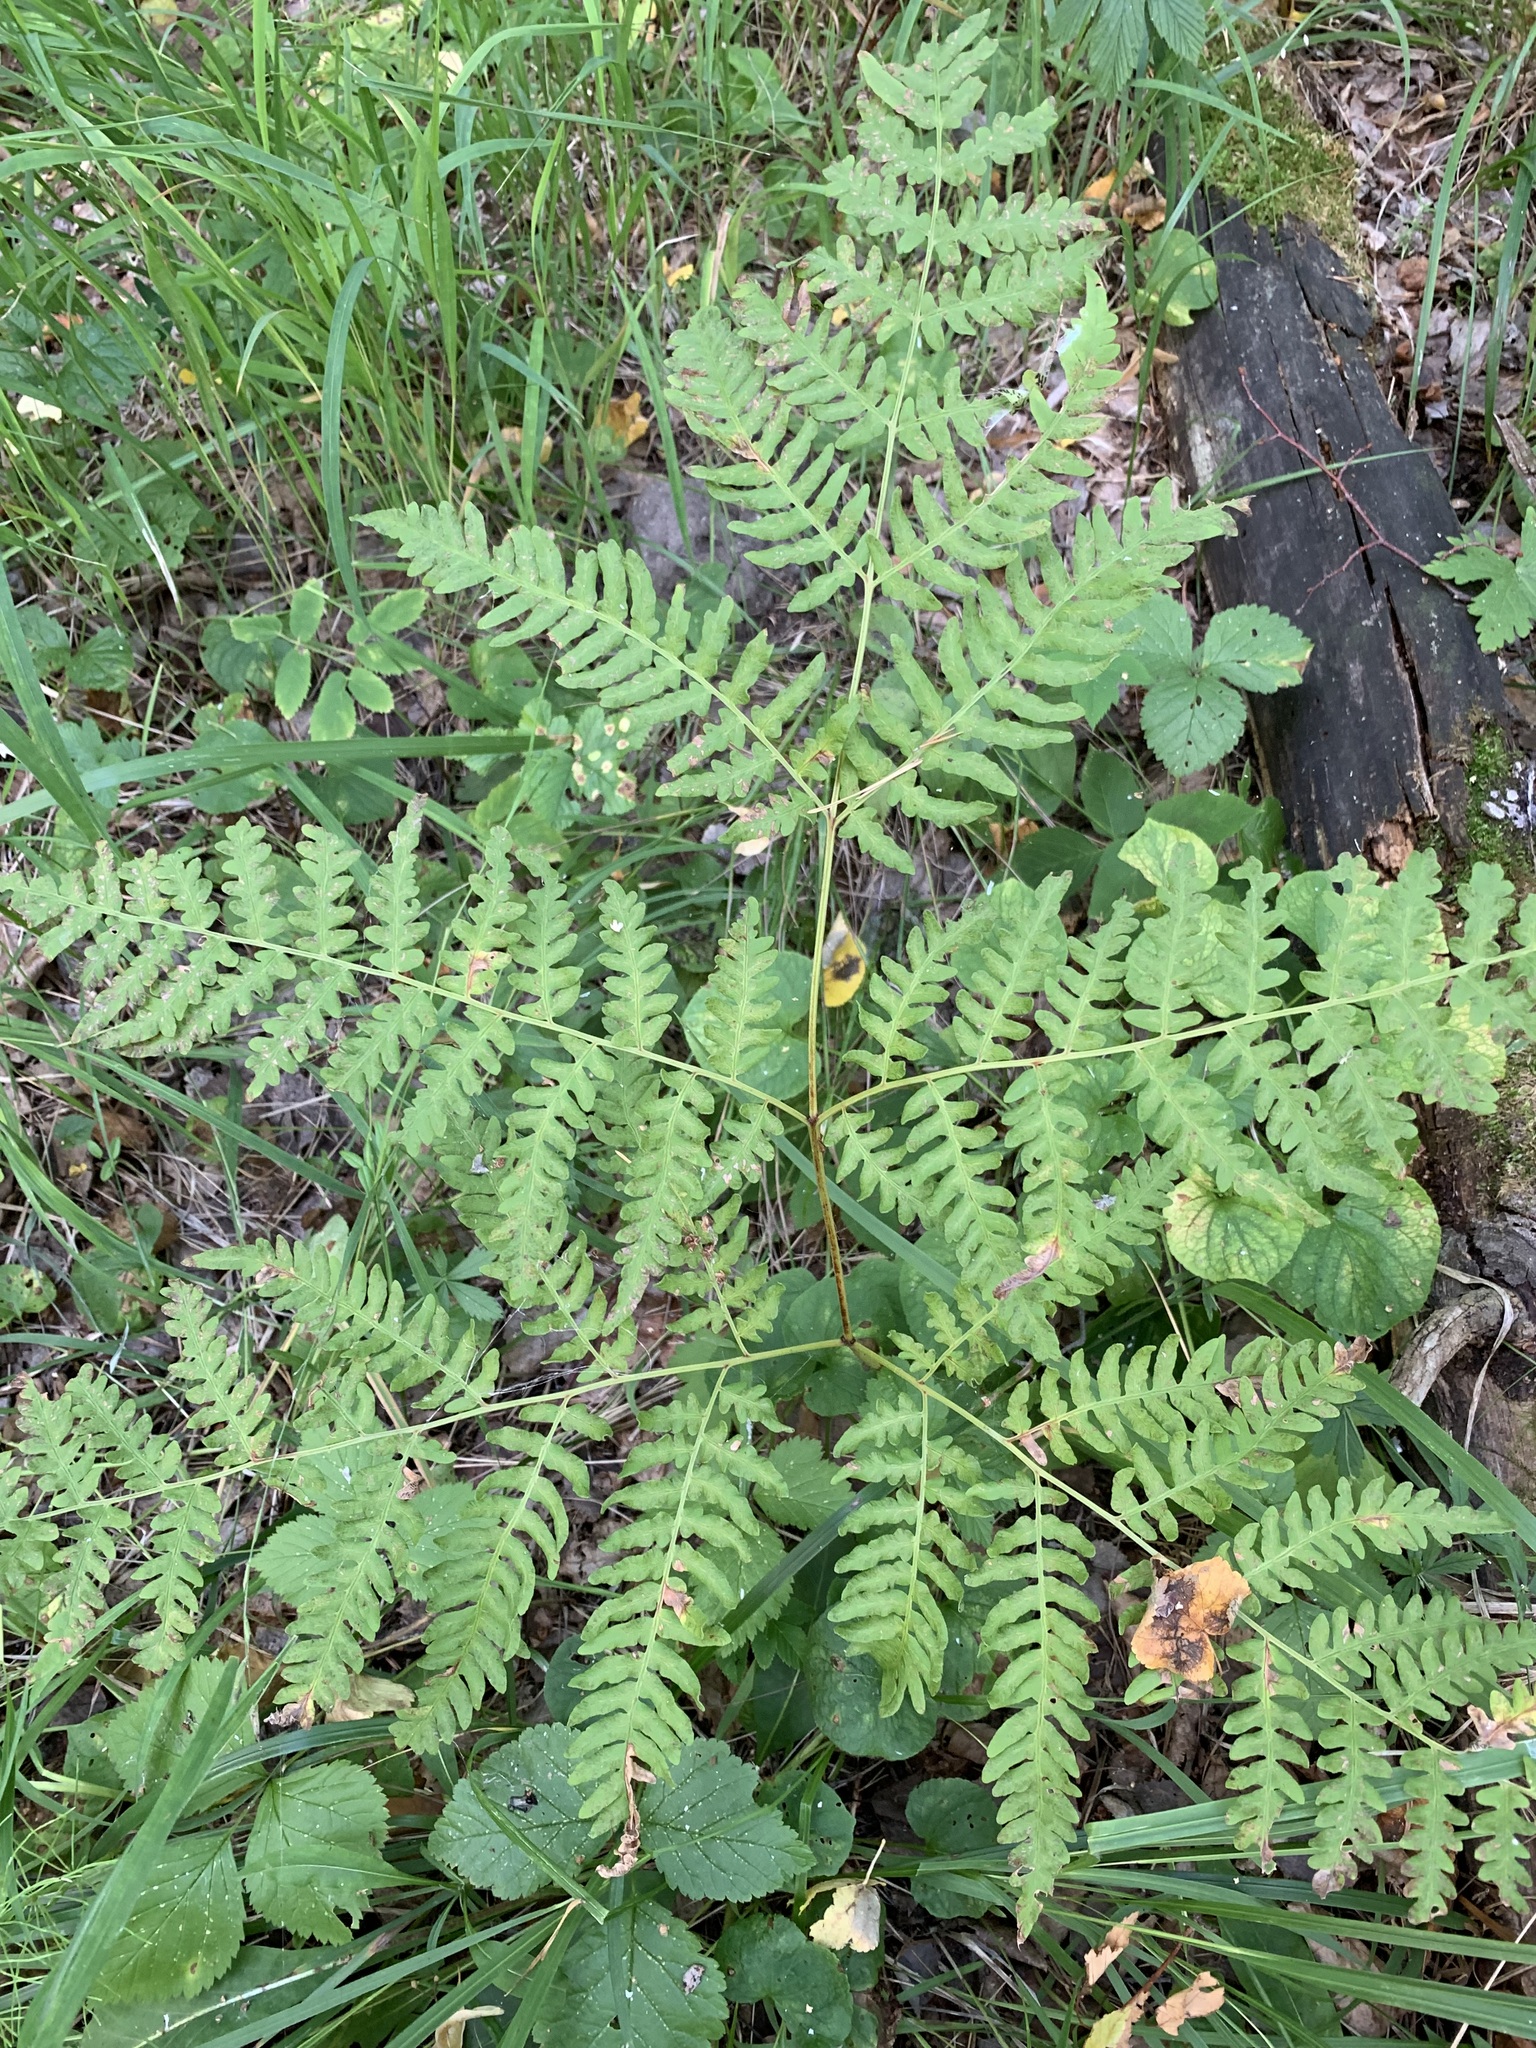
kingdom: Plantae
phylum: Tracheophyta
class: Polypodiopsida
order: Polypodiales
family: Dennstaedtiaceae
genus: Pteridium
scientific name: Pteridium aquilinum
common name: Bracken
